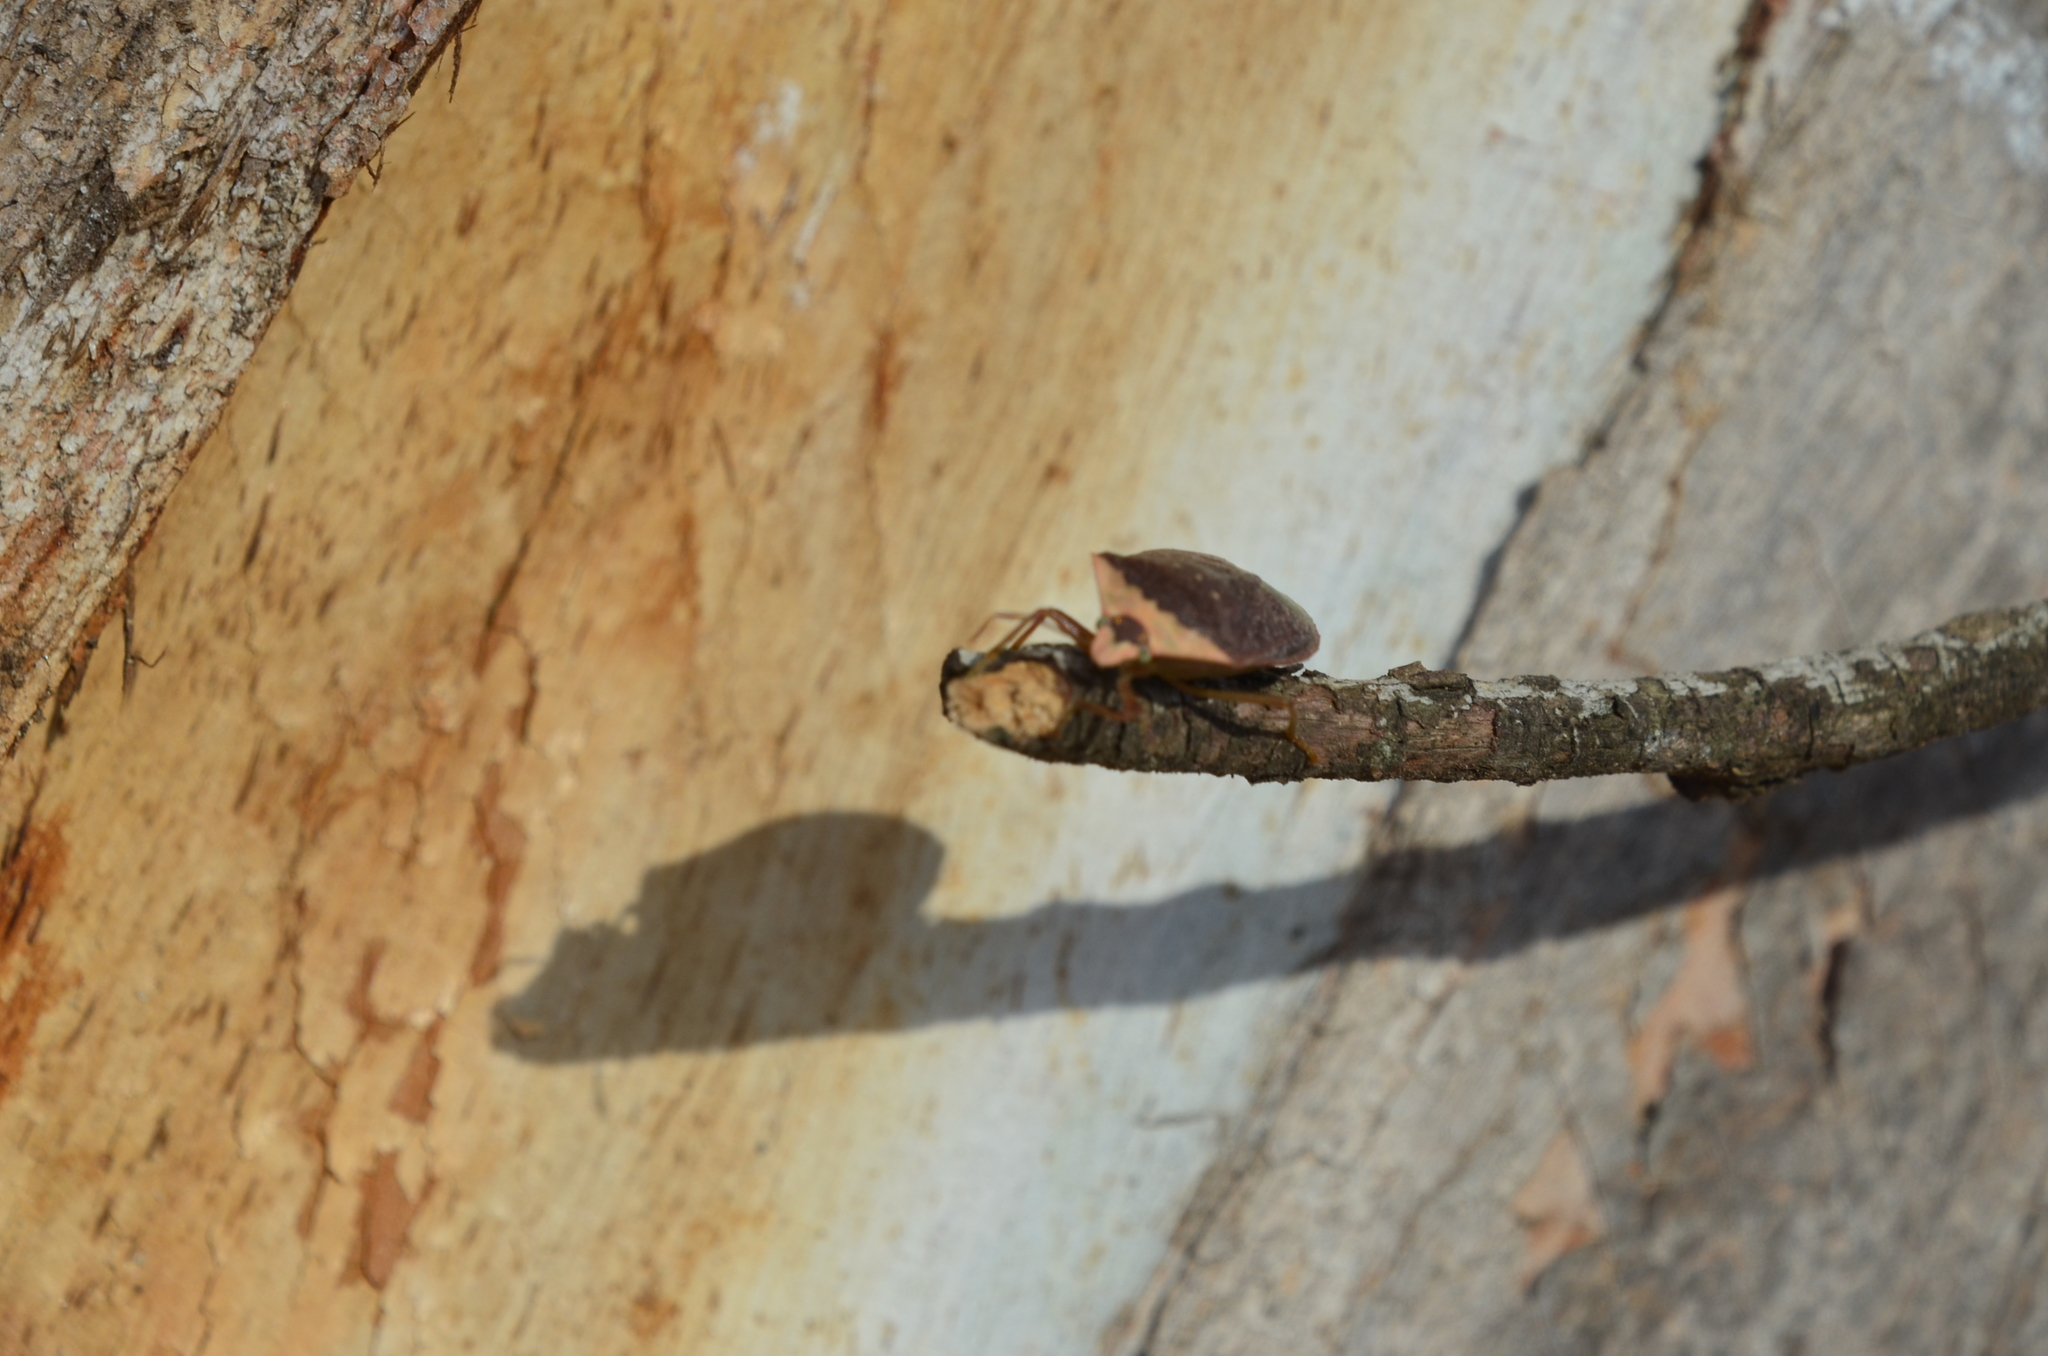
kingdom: Animalia
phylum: Arthropoda
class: Insecta
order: Hemiptera
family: Pentatomidae
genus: Nezara
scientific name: Nezara viridula
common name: Southern green stink bug
